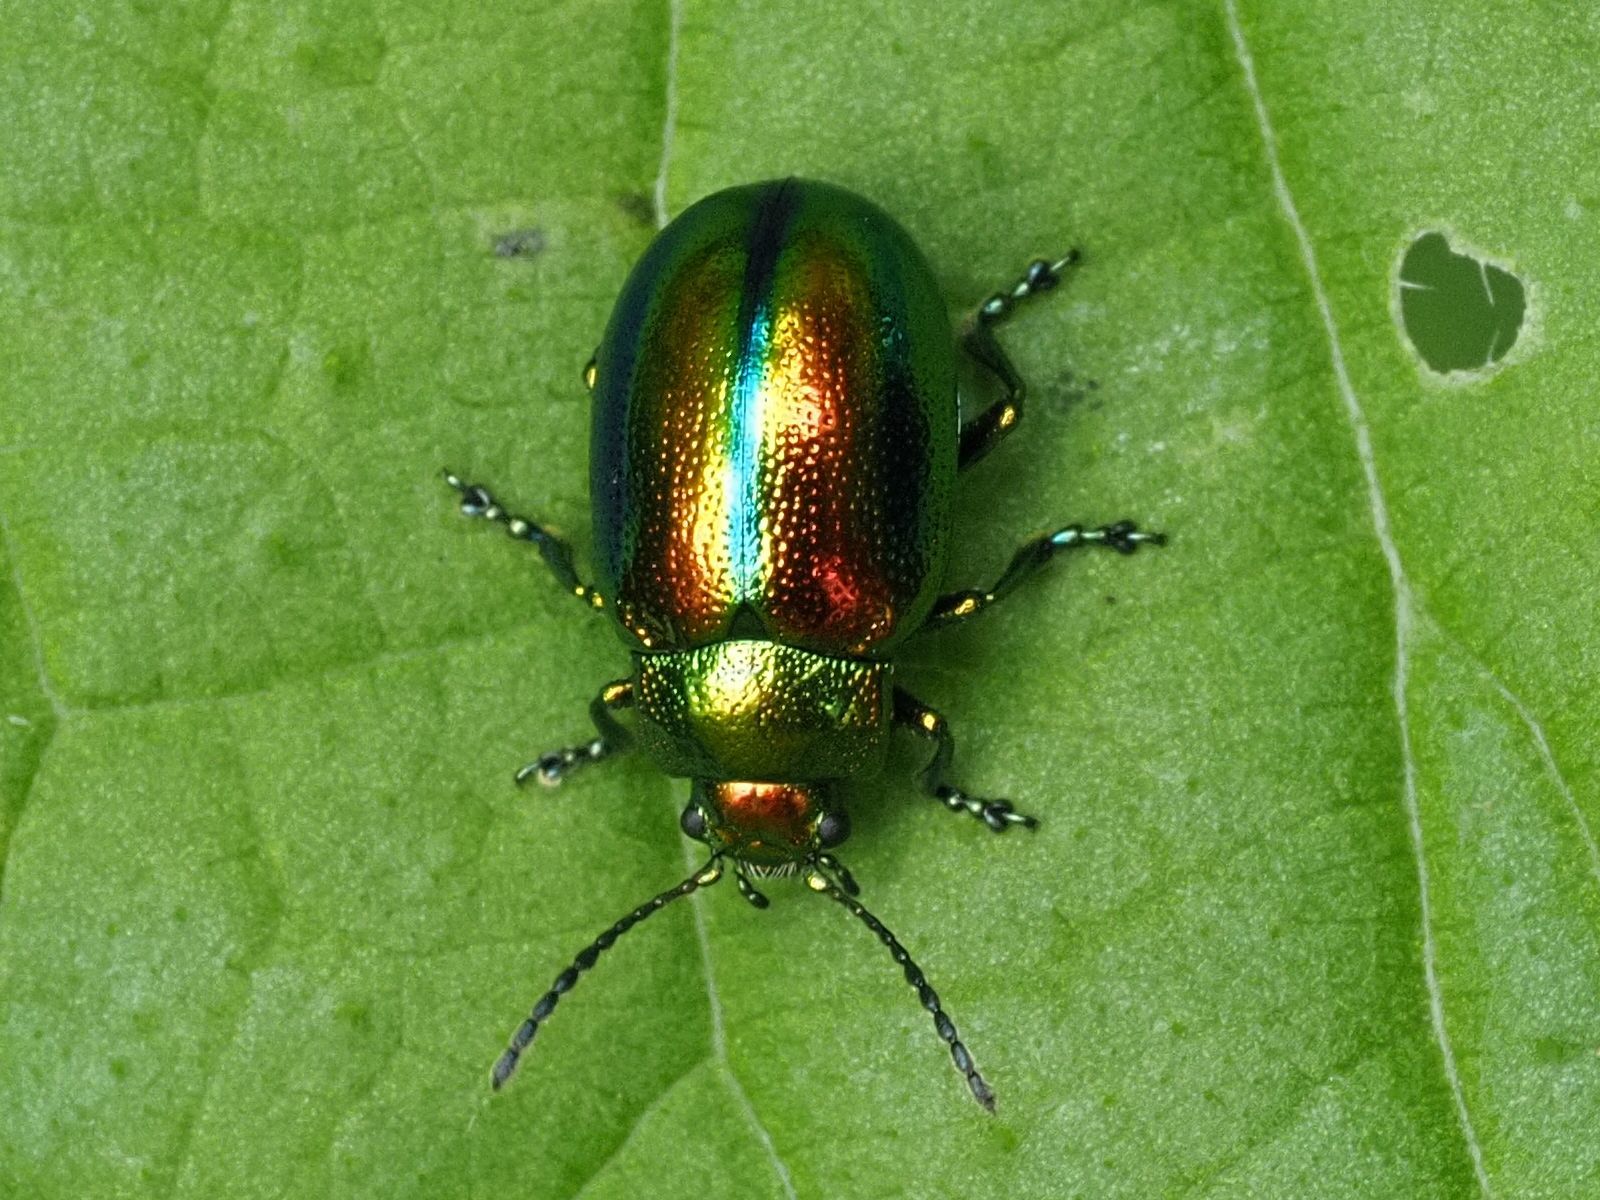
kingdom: Animalia
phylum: Arthropoda
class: Insecta
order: Coleoptera
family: Chrysomelidae
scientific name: Chrysomelidae
